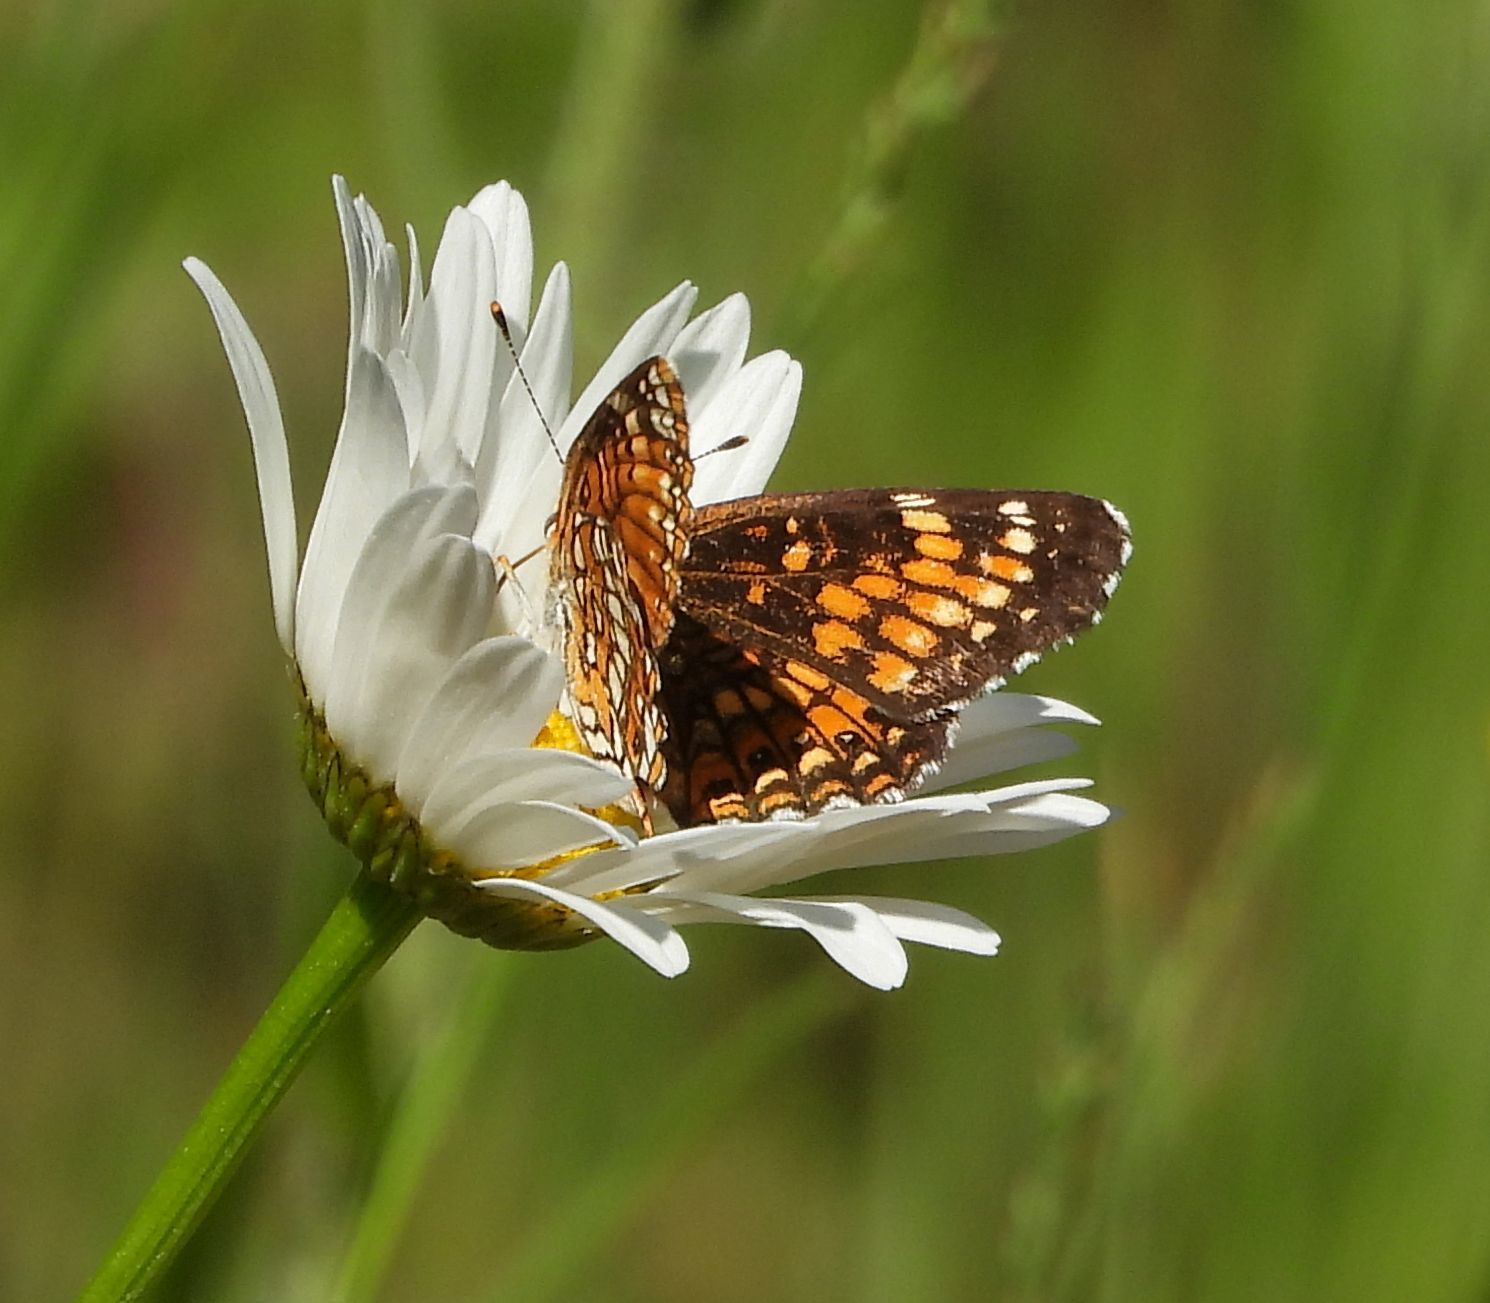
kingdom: Animalia
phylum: Arthropoda
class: Insecta
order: Lepidoptera
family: Nymphalidae
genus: Chlosyne
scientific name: Chlosyne harrisii
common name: Harris's checkerspot
